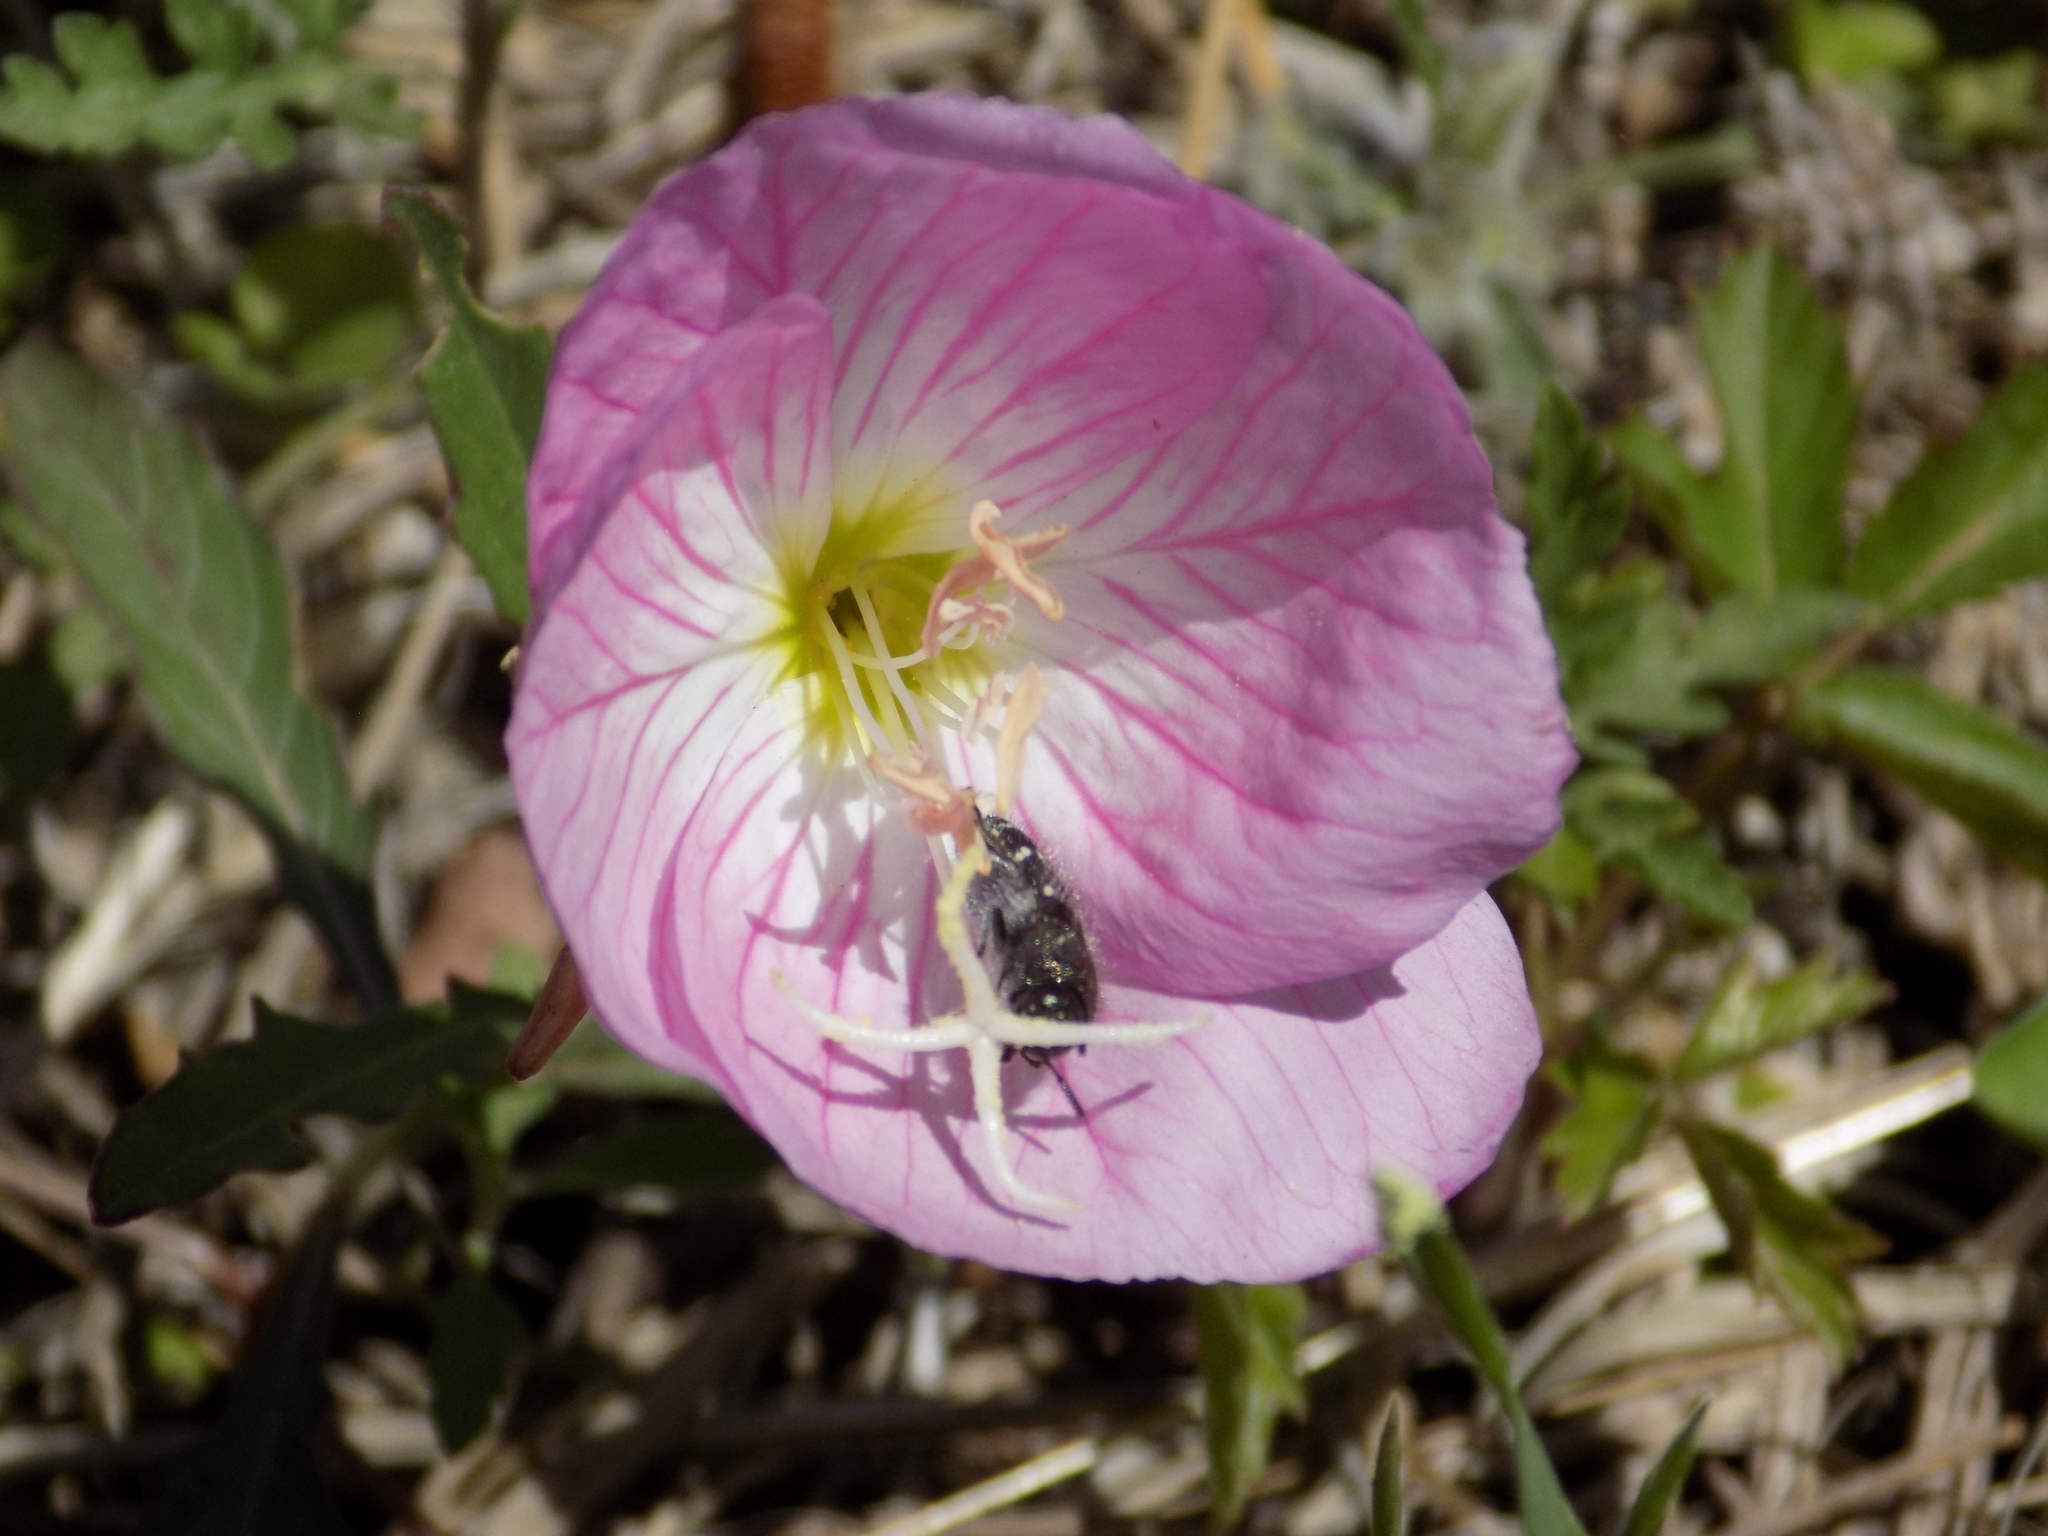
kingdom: Plantae
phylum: Tracheophyta
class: Magnoliopsida
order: Myrtales
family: Onagraceae
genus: Oenothera
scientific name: Oenothera speciosa
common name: White evening-primrose
